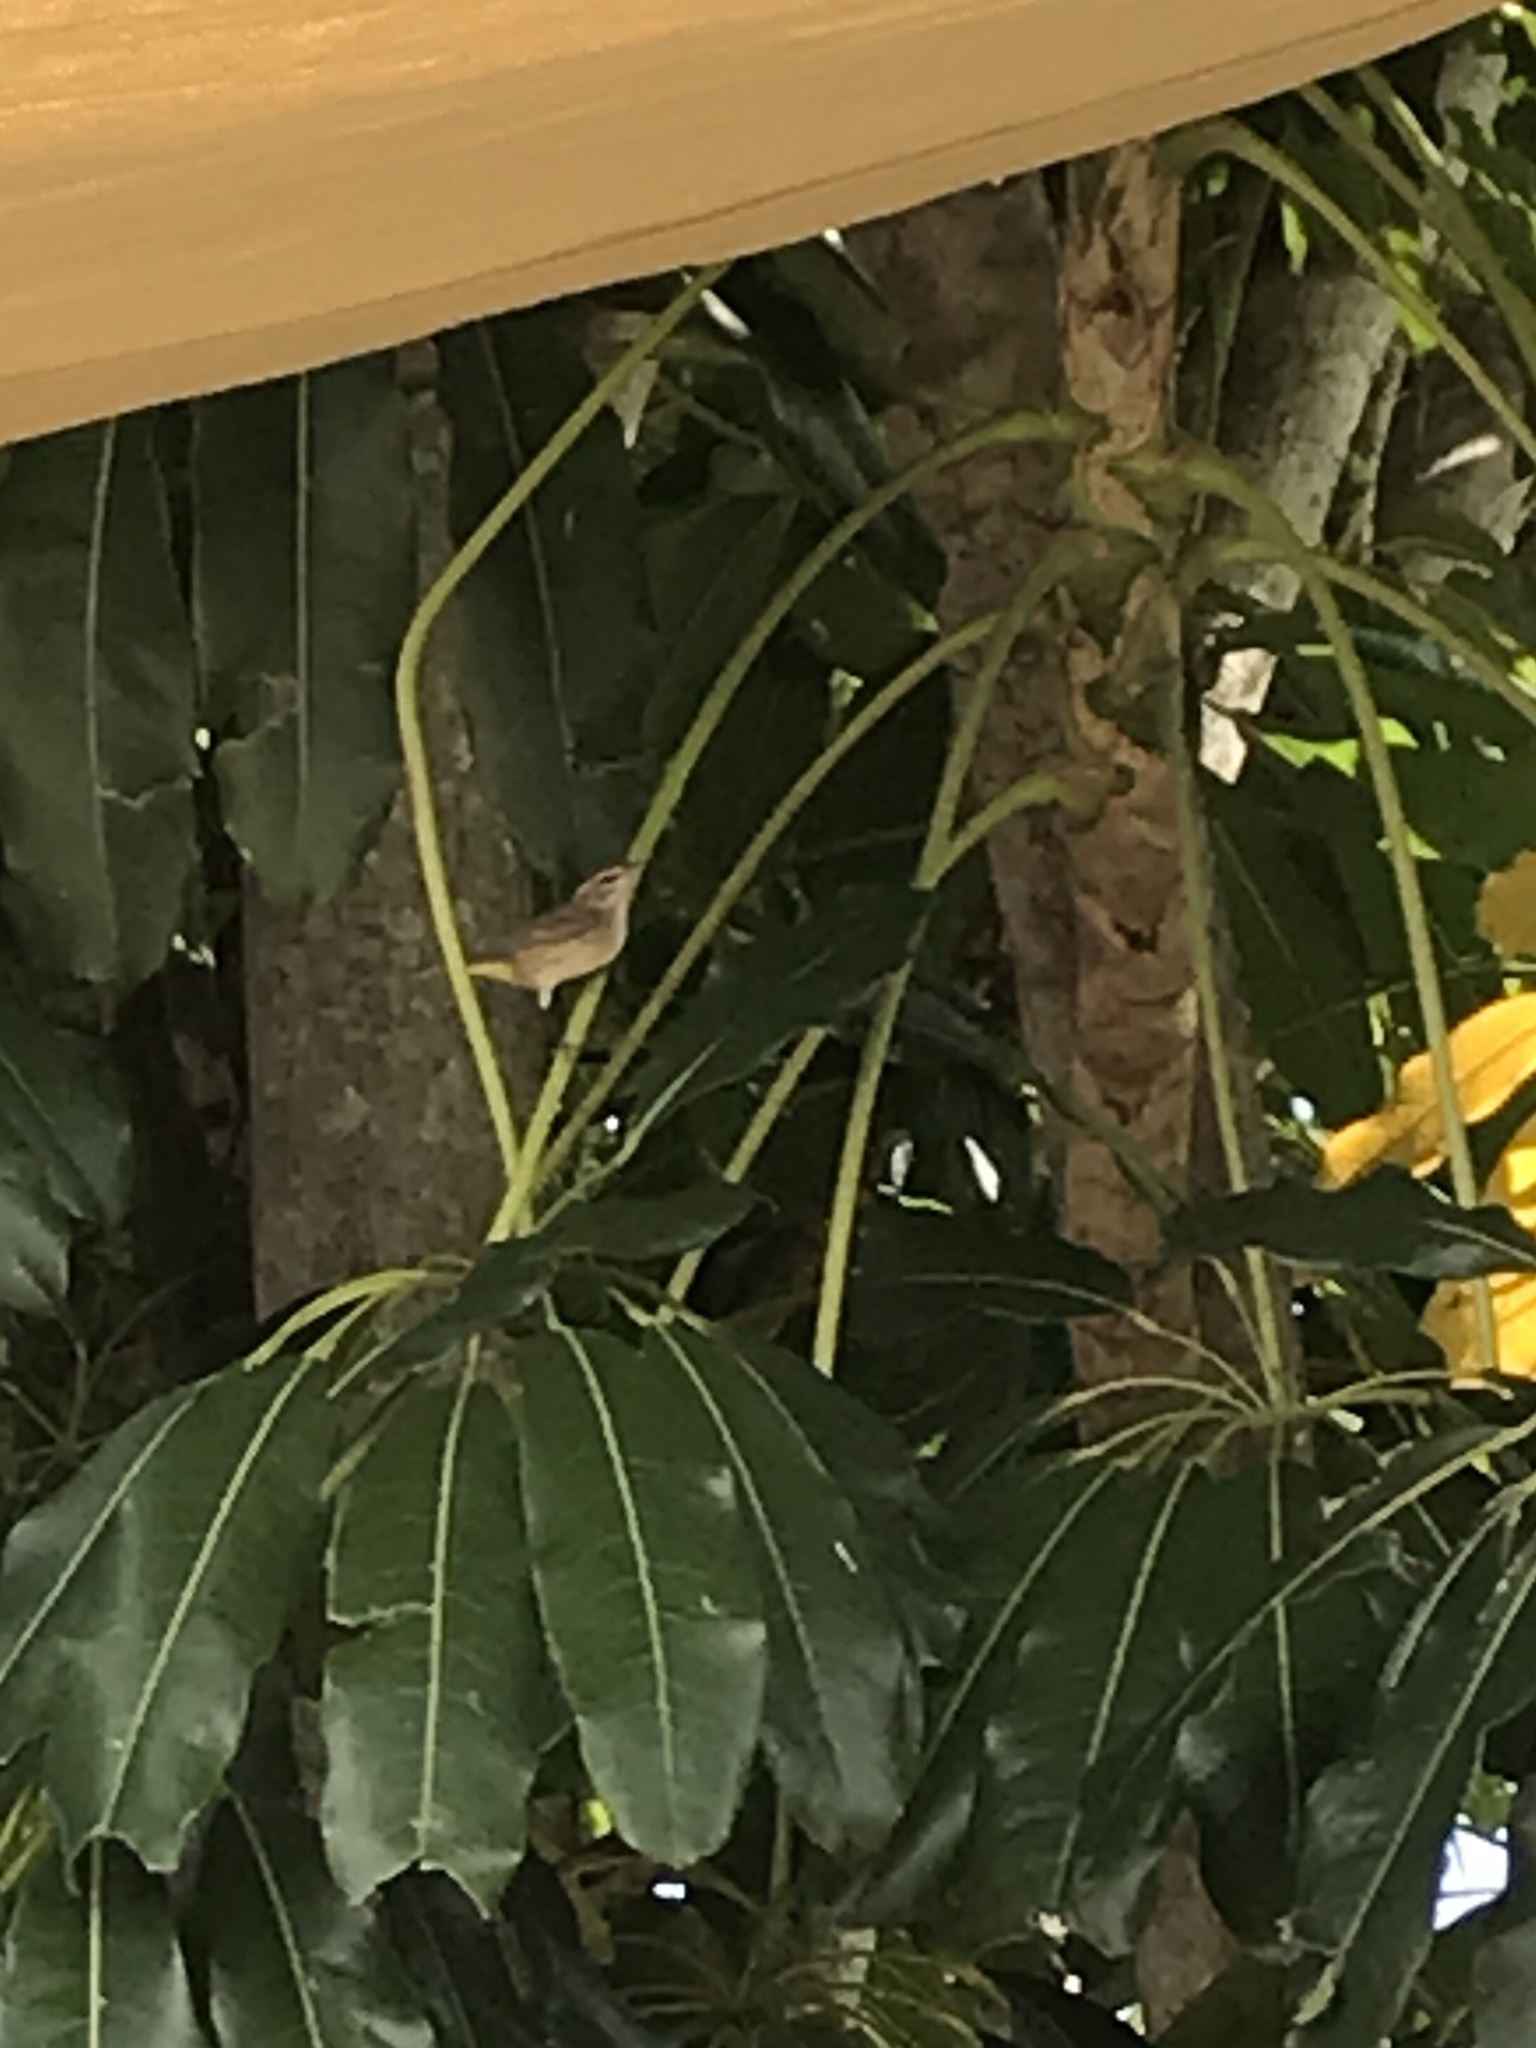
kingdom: Animalia
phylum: Chordata
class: Aves
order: Passeriformes
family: Parulidae
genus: Setophaga
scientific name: Setophaga palmarum
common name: Palm warbler
